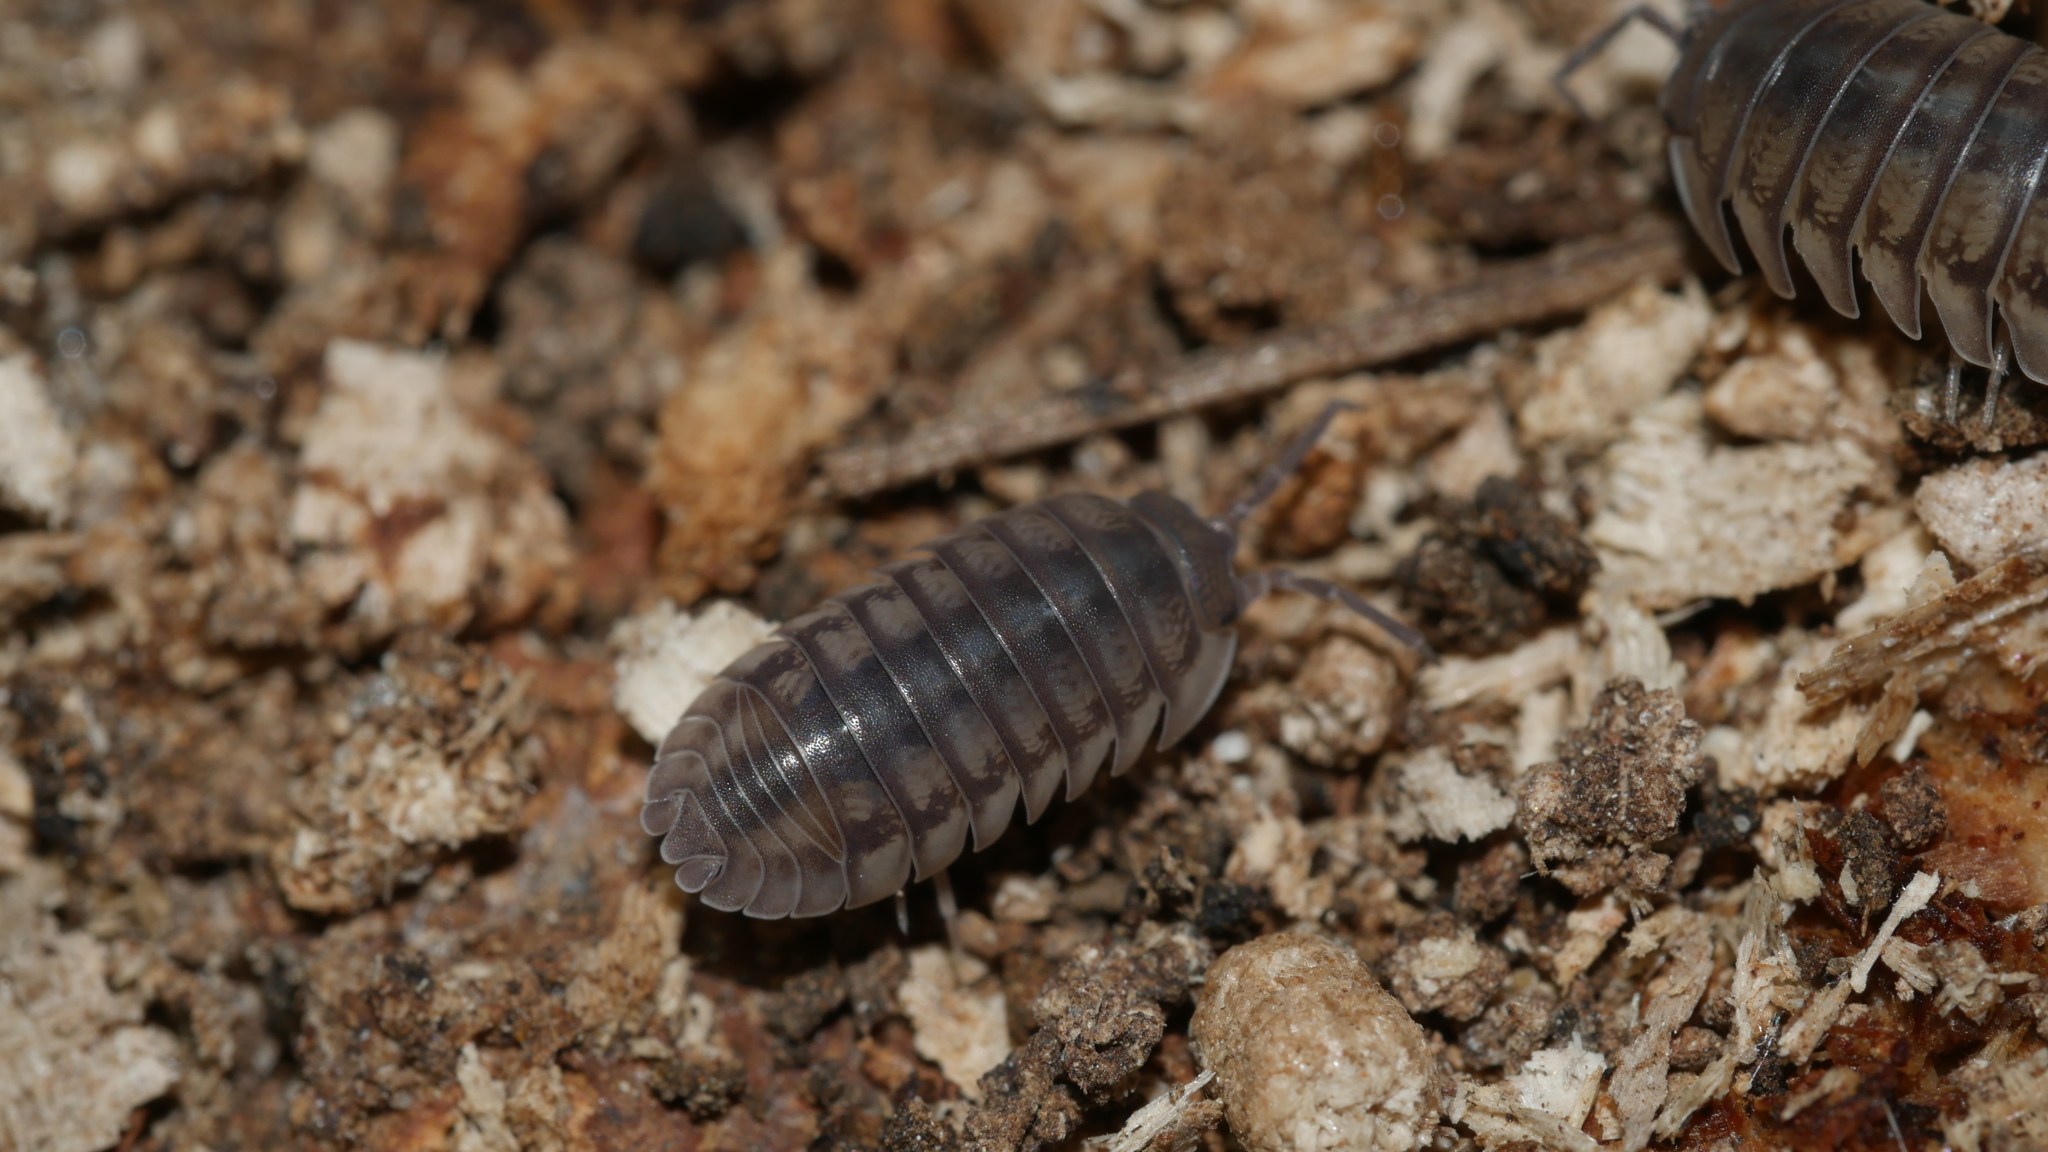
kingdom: Animalia
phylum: Arthropoda
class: Malacostraca
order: Isopoda
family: Armadillidiidae
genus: Armadillidium
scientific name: Armadillidium nasatum
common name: Isopod
